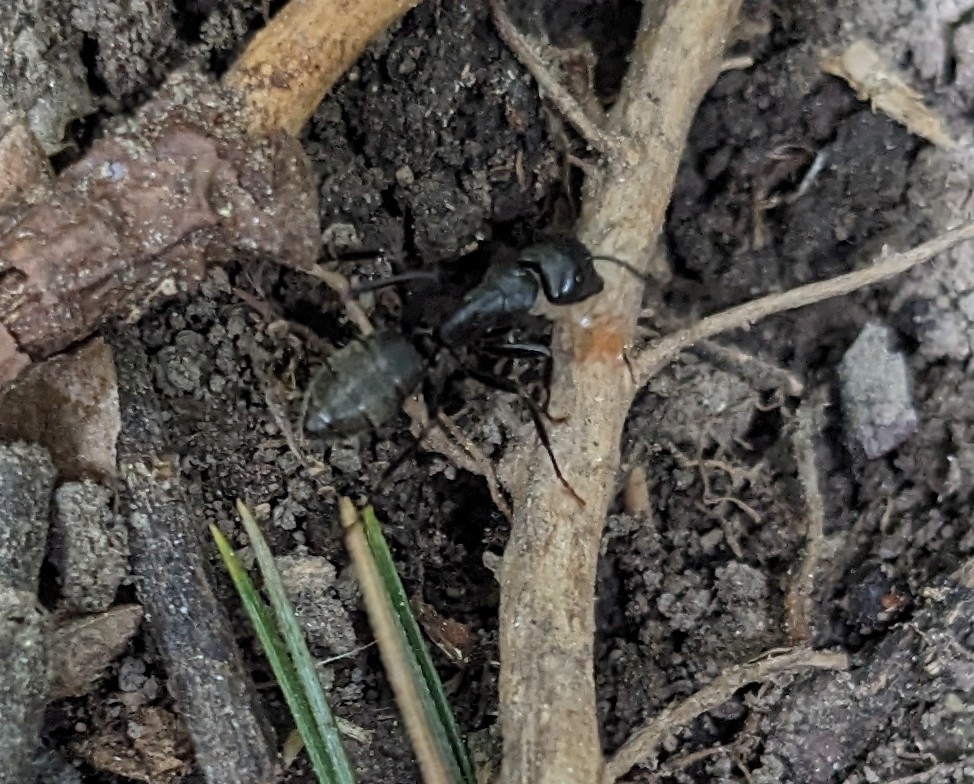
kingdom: Animalia
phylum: Arthropoda
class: Insecta
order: Hymenoptera
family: Formicidae
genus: Camponotus
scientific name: Camponotus pennsylvanicus
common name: Black carpenter ant
